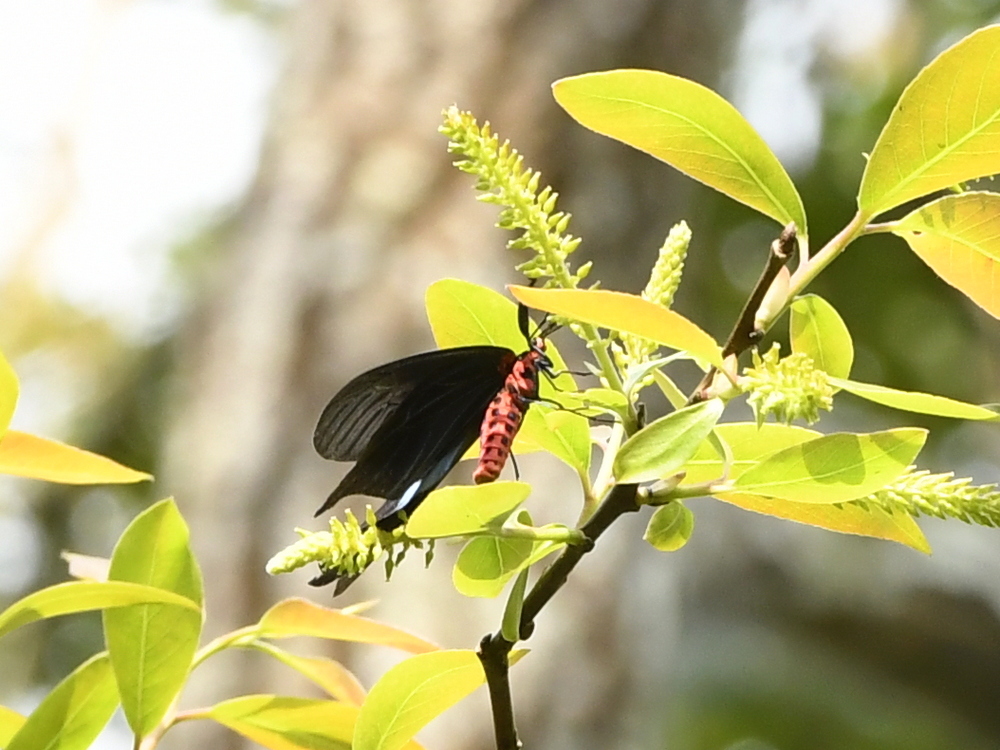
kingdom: Animalia
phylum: Arthropoda
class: Insecta
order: Lepidoptera
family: Zygaenidae
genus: Gynautocera
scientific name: Gynautocera papilionaria
